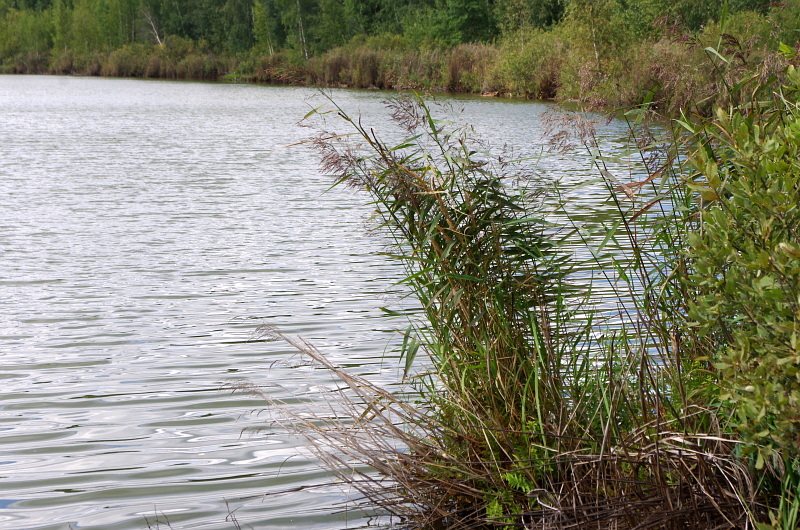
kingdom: Plantae
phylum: Tracheophyta
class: Liliopsida
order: Poales
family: Poaceae
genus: Phragmites
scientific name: Phragmites australis
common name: Common reed
